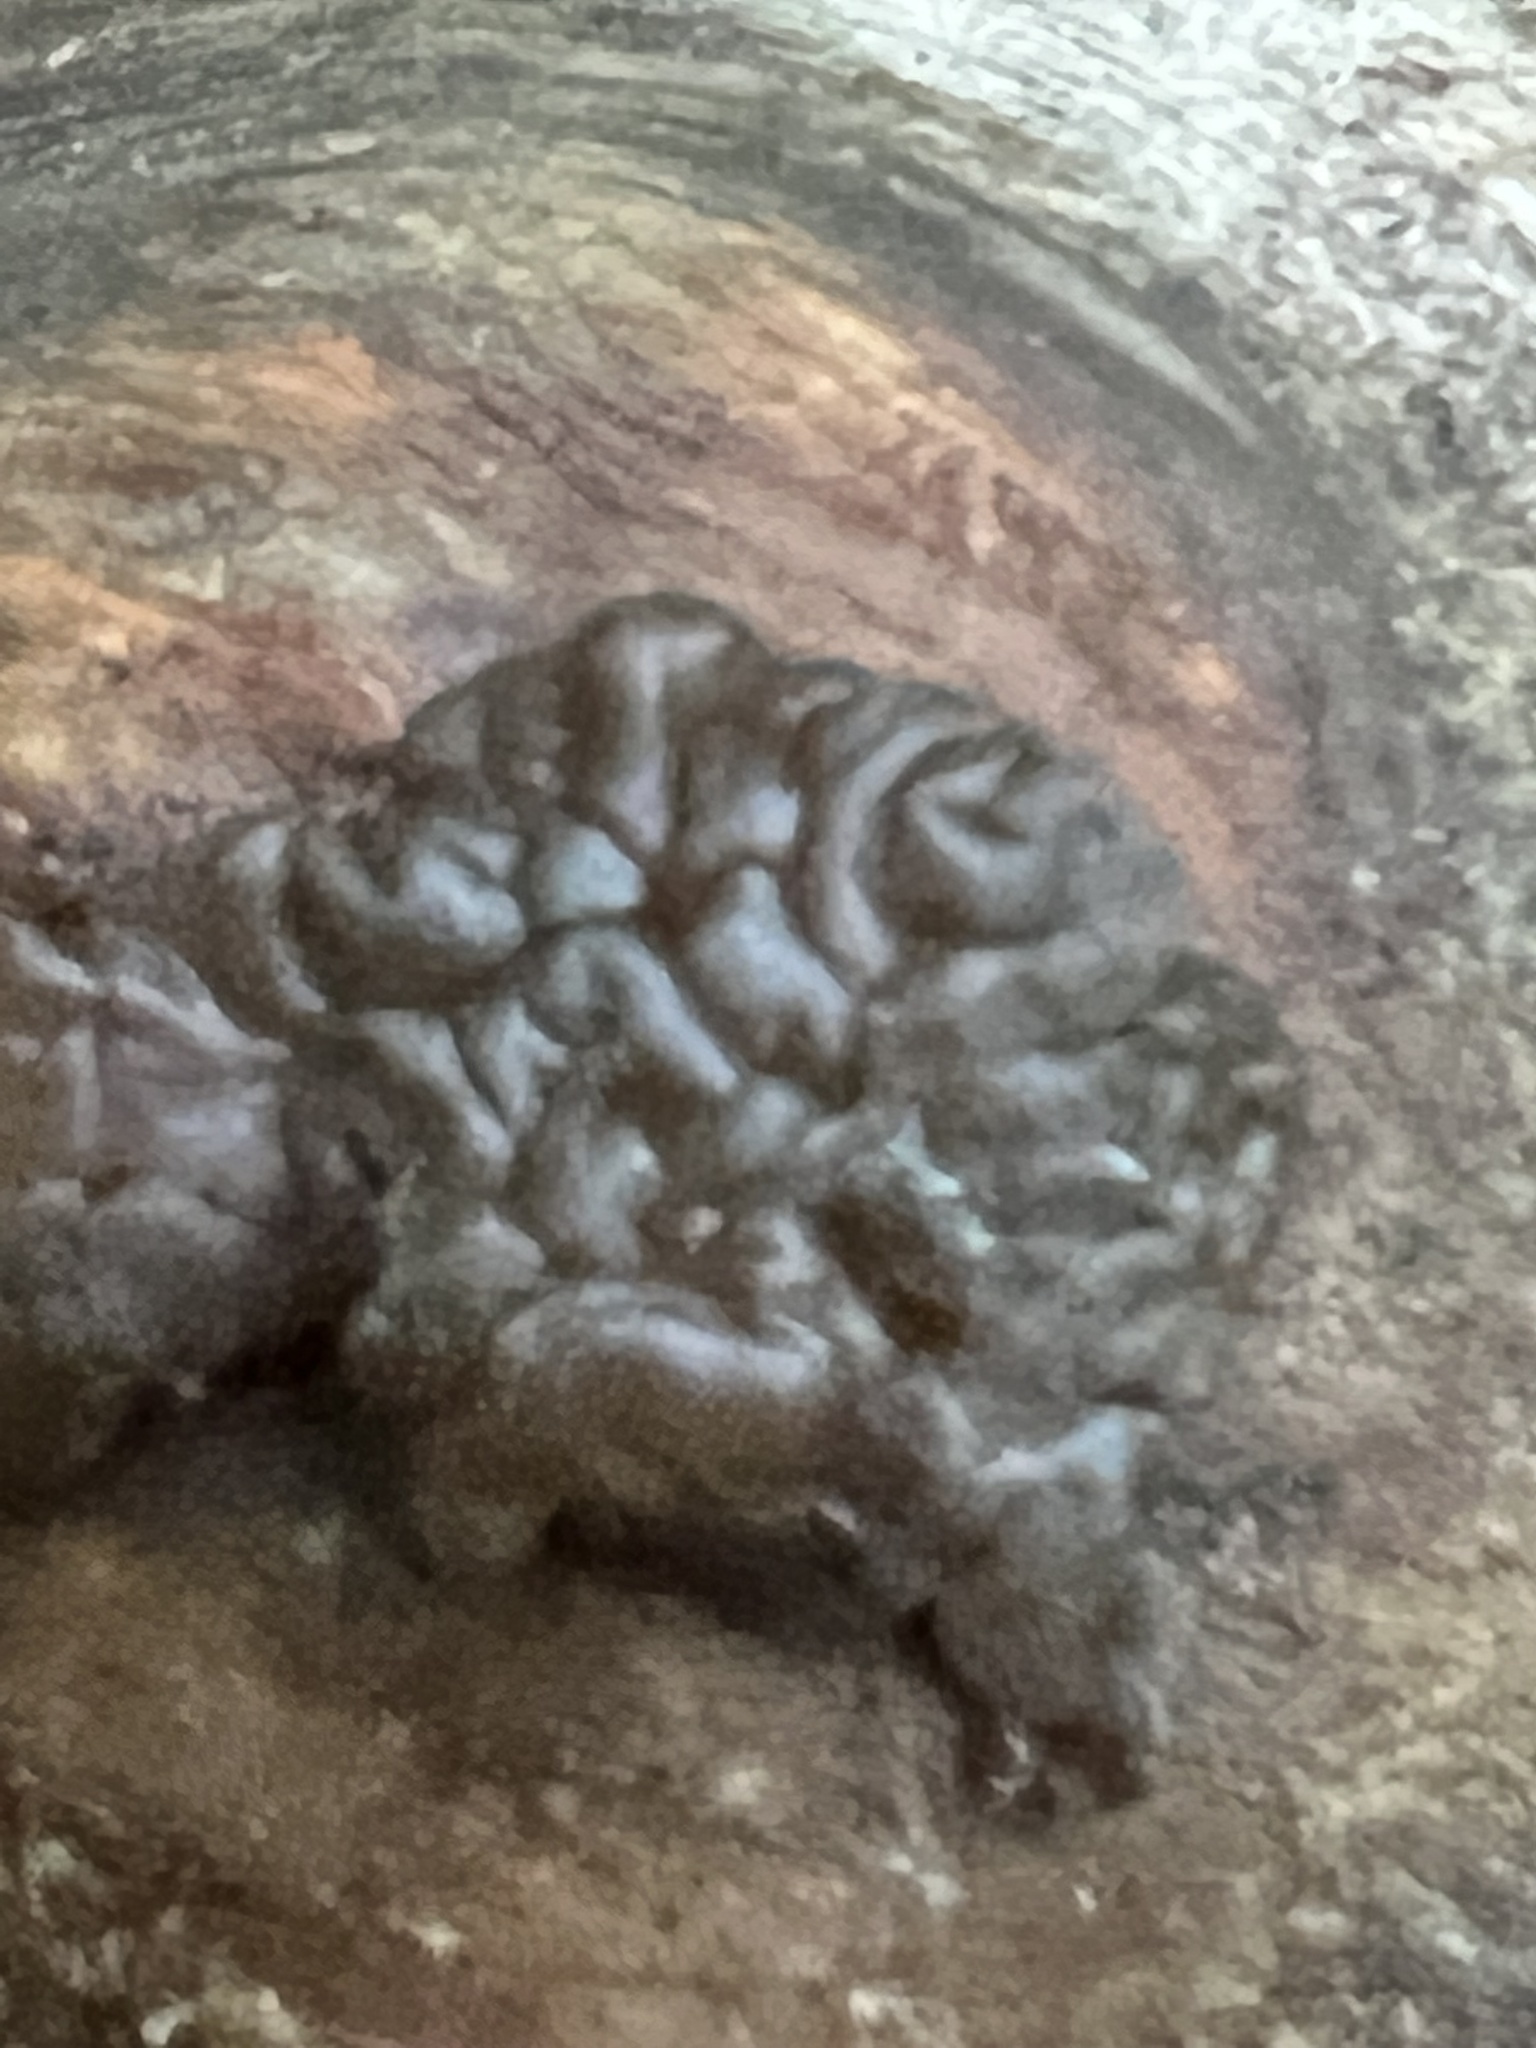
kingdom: Fungi
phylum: Basidiomycota
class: Agaricomycetes
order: Auriculariales
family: Auriculariaceae
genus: Exidia
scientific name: Exidia nigricans
